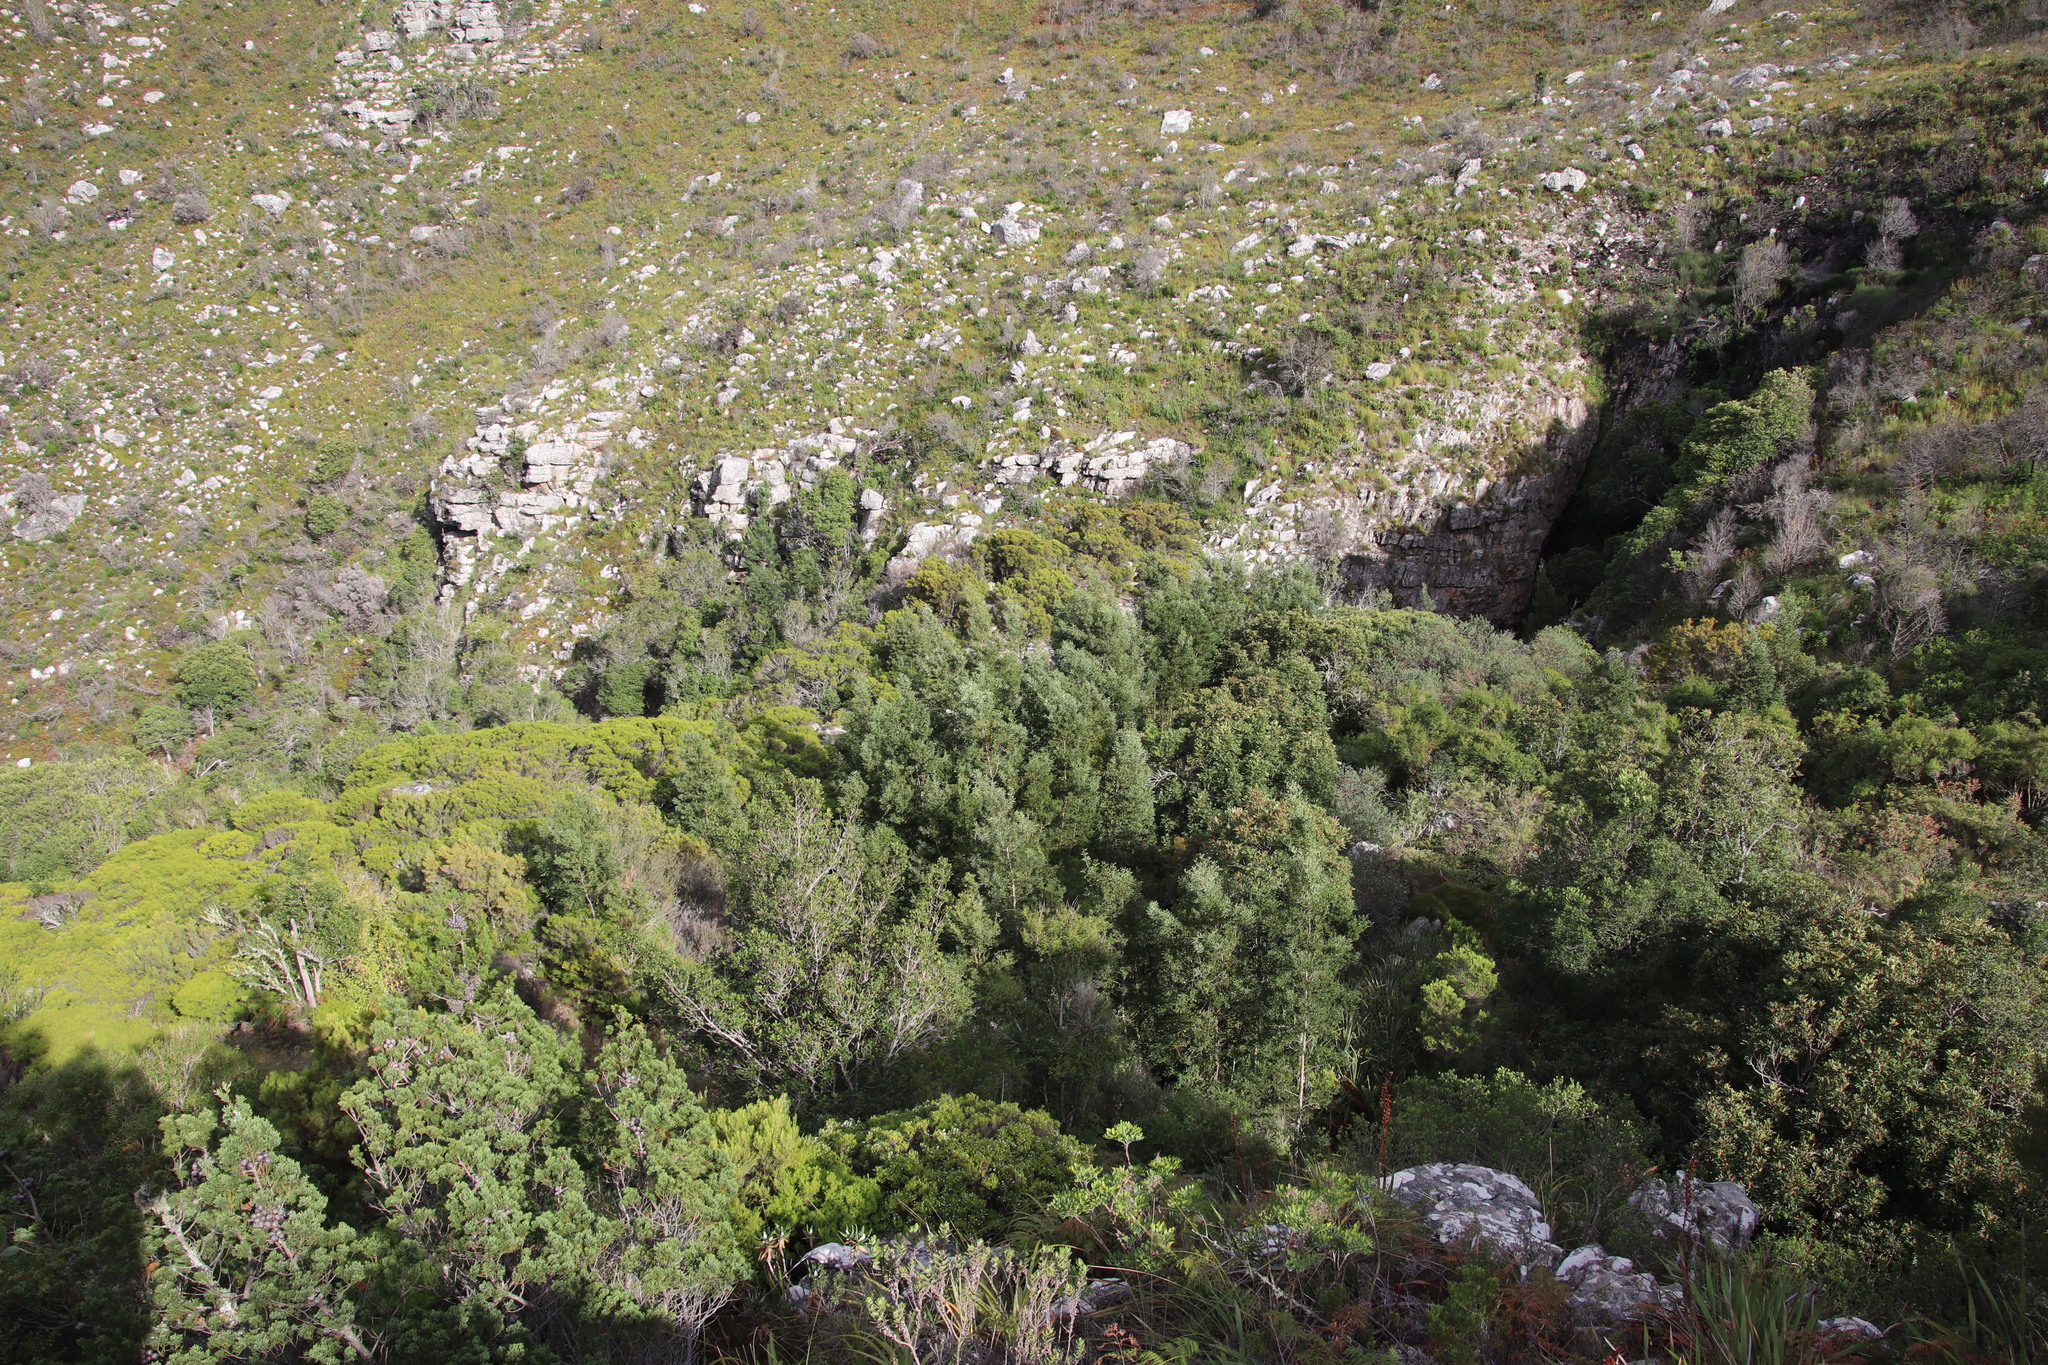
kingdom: Plantae
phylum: Tracheophyta
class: Magnoliopsida
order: Fabales
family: Fabaceae
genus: Acacia
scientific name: Acacia melanoxylon
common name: Blackwood
